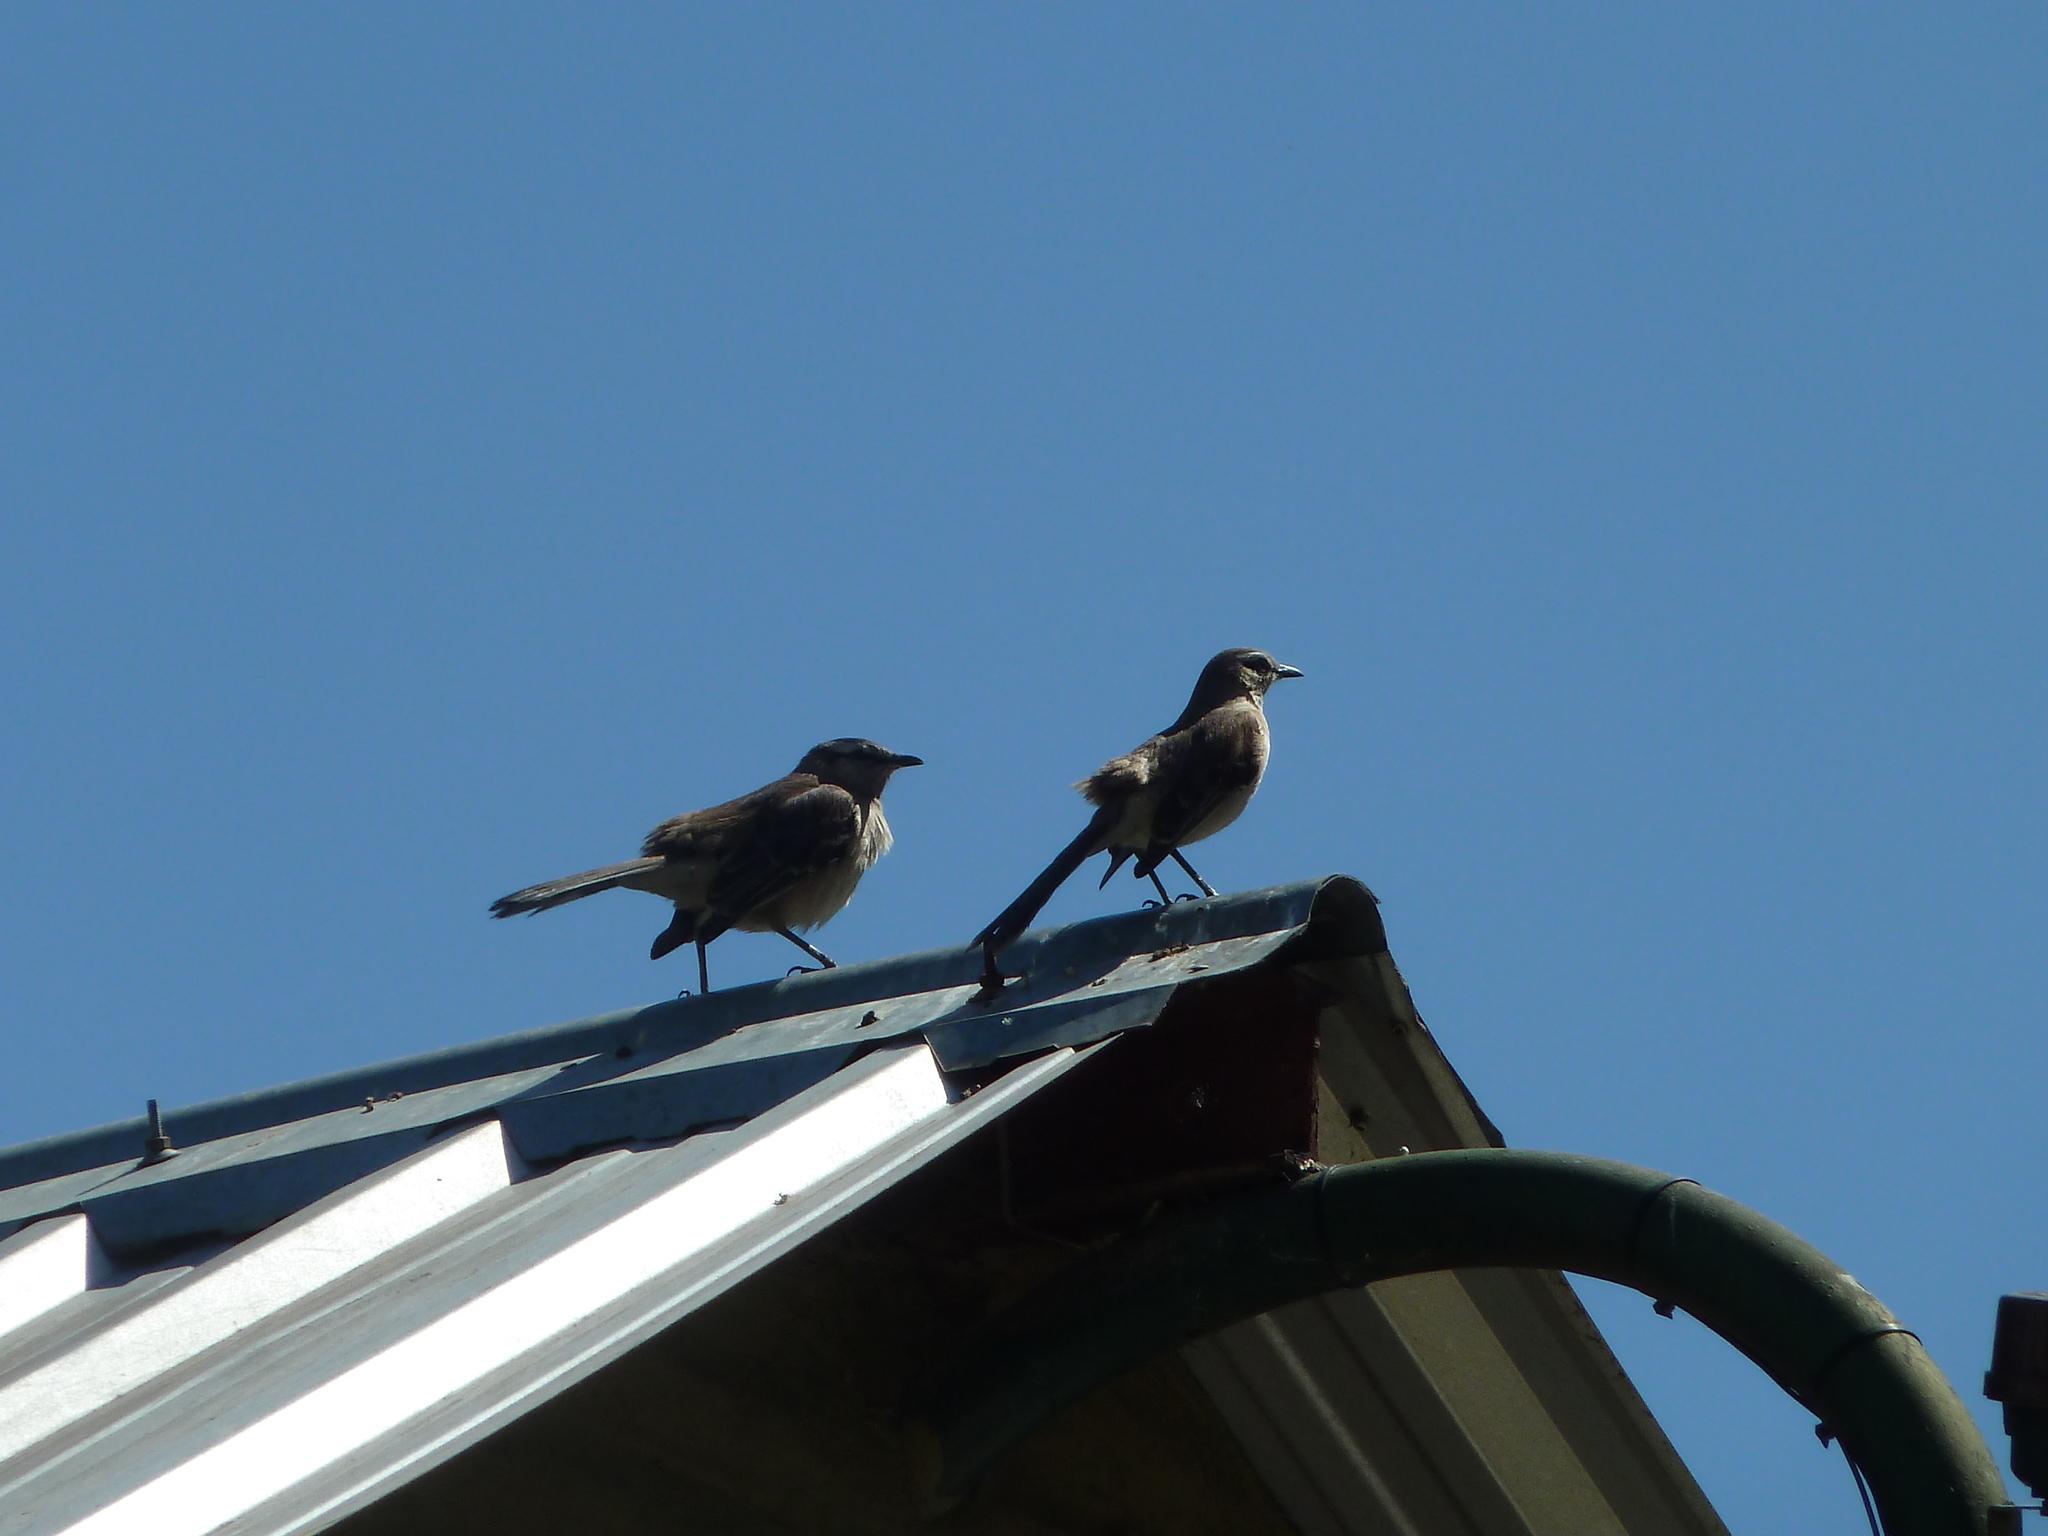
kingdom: Animalia
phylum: Chordata
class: Aves
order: Passeriformes
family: Mimidae
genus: Mimus
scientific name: Mimus saturninus
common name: Chalk-browed mockingbird
